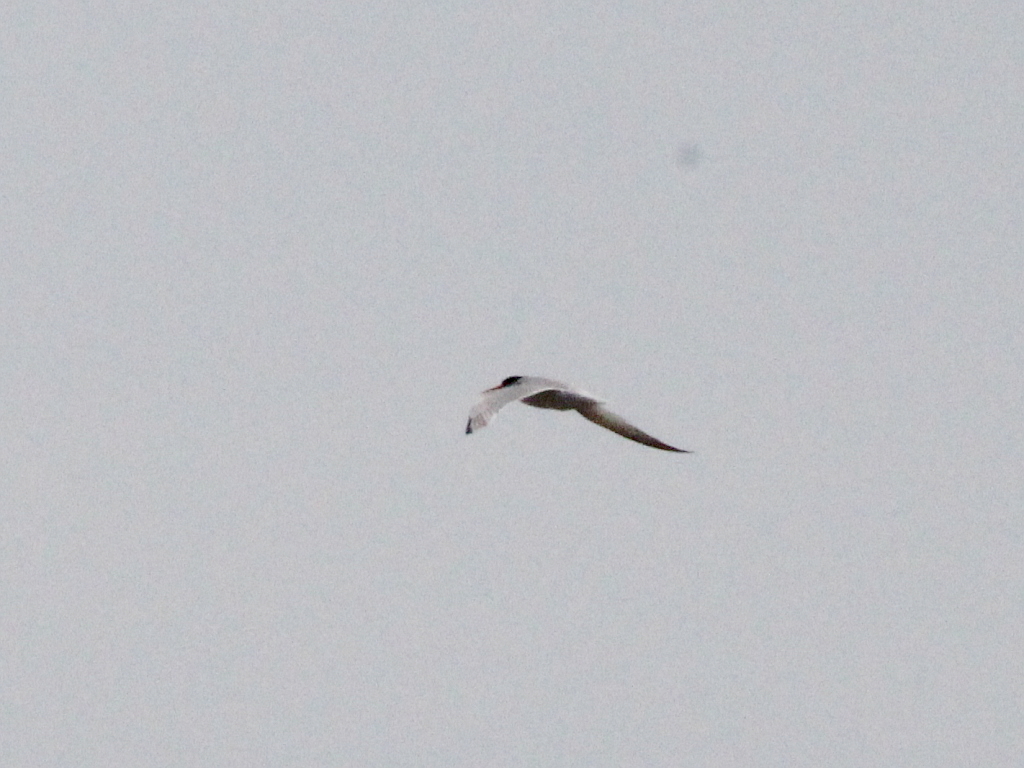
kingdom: Animalia
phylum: Chordata
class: Aves
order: Charadriiformes
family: Laridae
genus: Sternula
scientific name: Sternula albifrons
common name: Little tern
